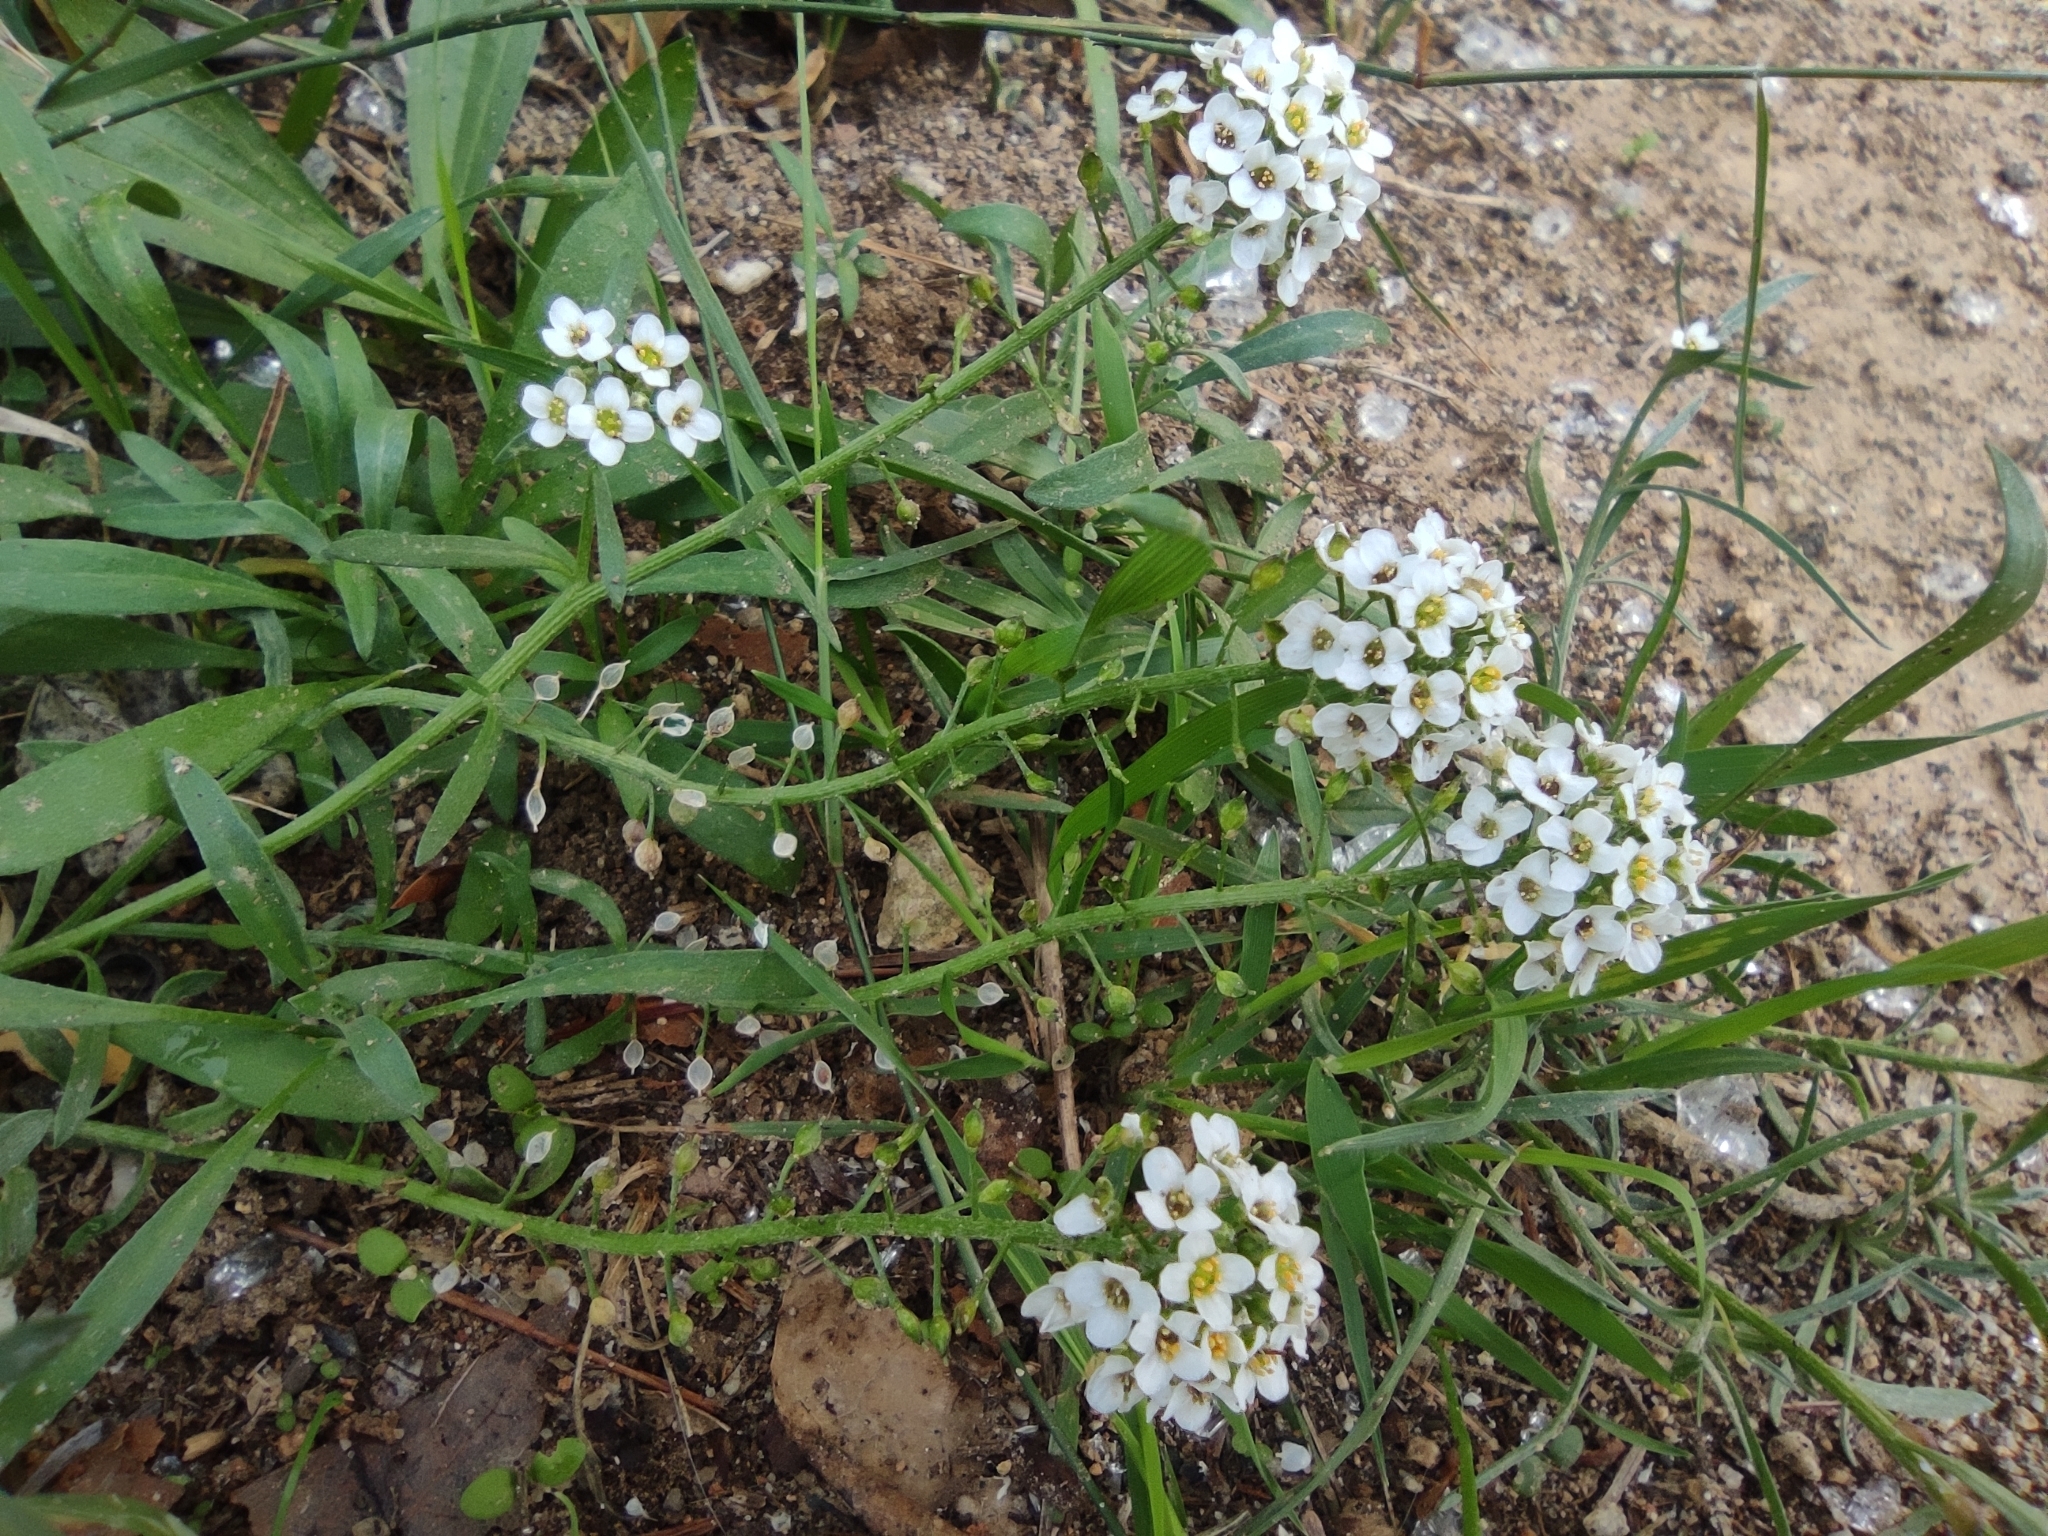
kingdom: Plantae
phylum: Tracheophyta
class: Magnoliopsida
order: Brassicales
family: Brassicaceae
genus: Lobularia
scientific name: Lobularia maritima
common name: Sweet alison
